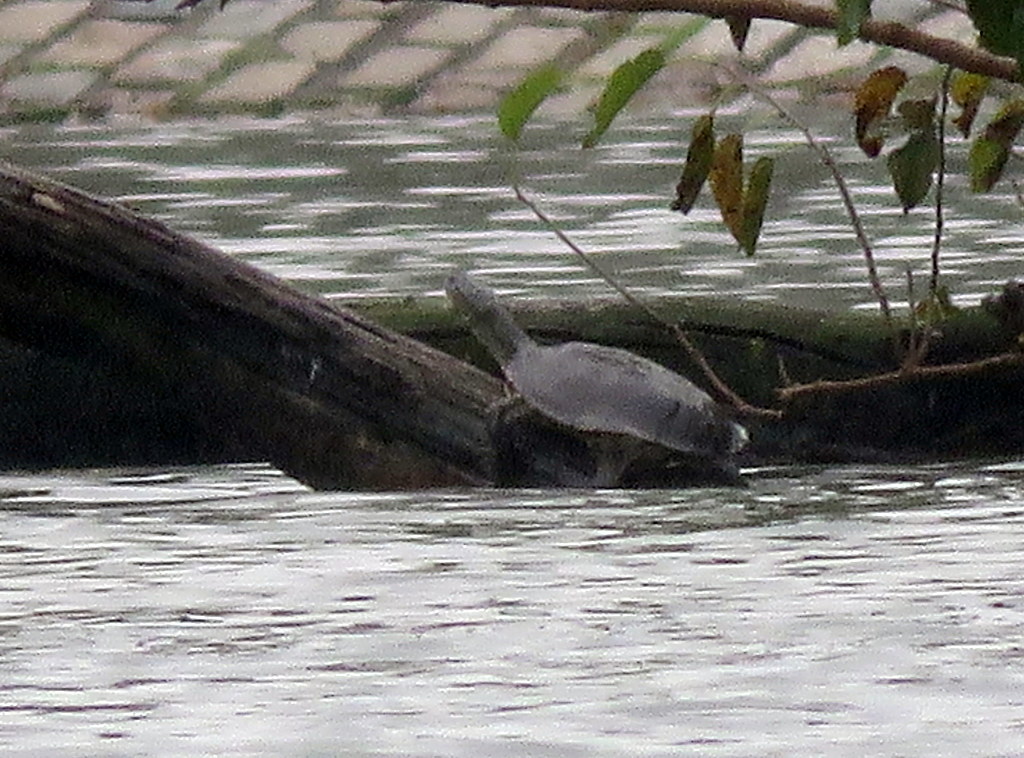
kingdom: Animalia
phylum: Chordata
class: Testudines
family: Chelidae
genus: Phrynops
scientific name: Phrynops hilarii
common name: Side-necked turtle of saint hillaire
